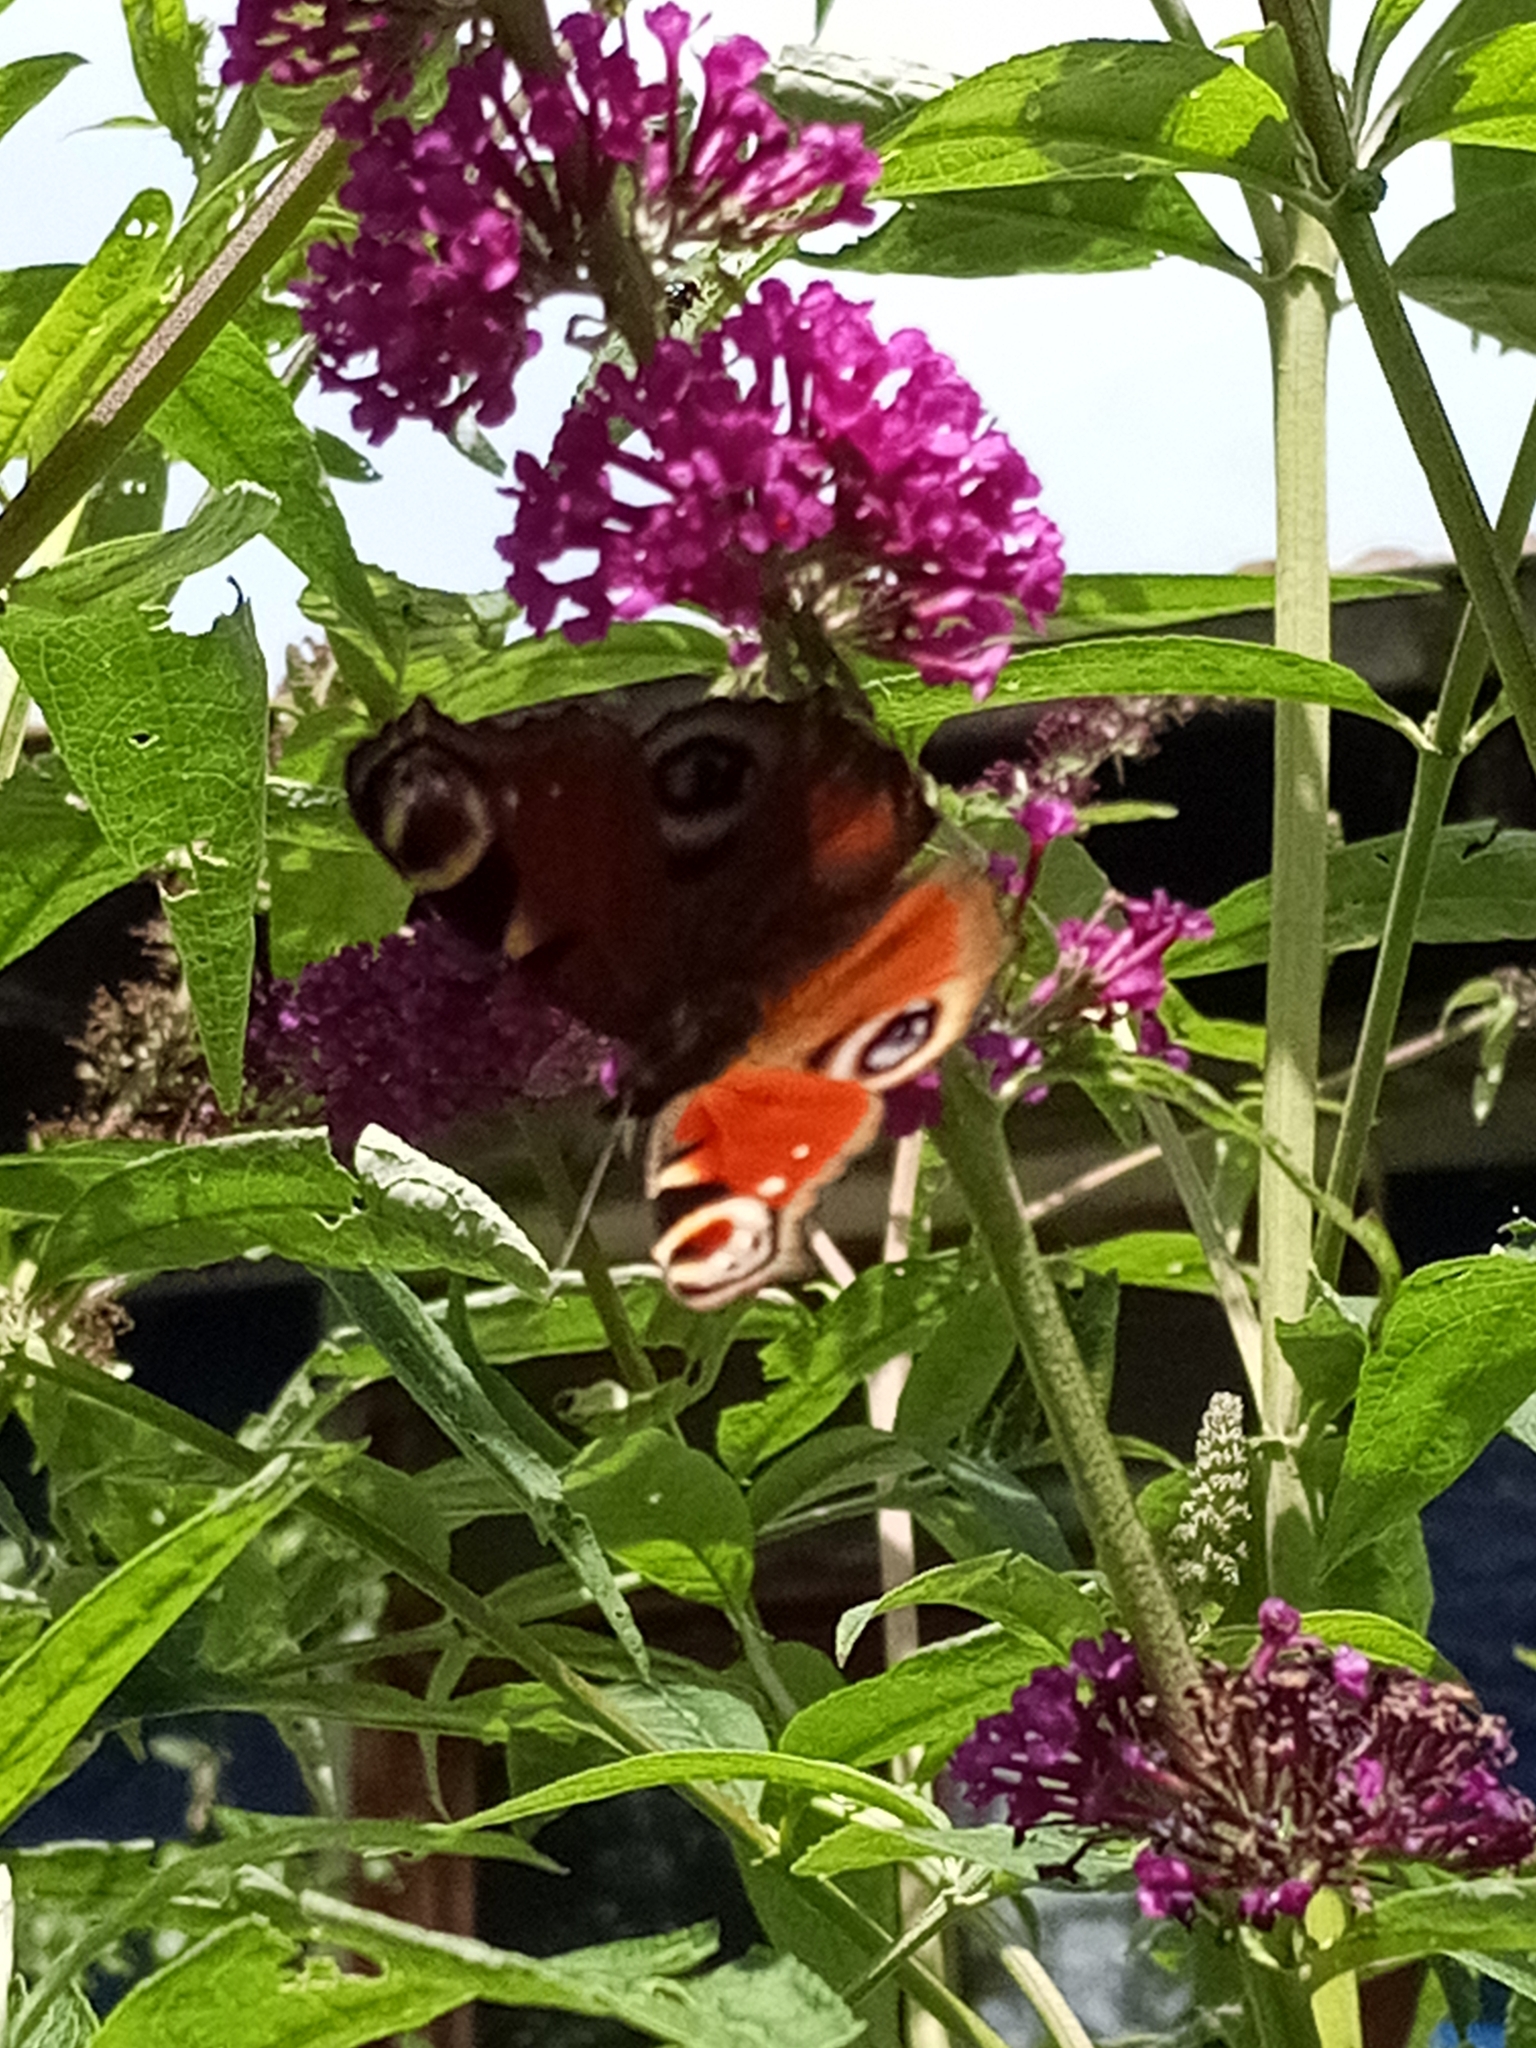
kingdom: Animalia
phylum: Arthropoda
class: Insecta
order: Lepidoptera
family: Nymphalidae
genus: Aglais
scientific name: Aglais io
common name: Peacock
